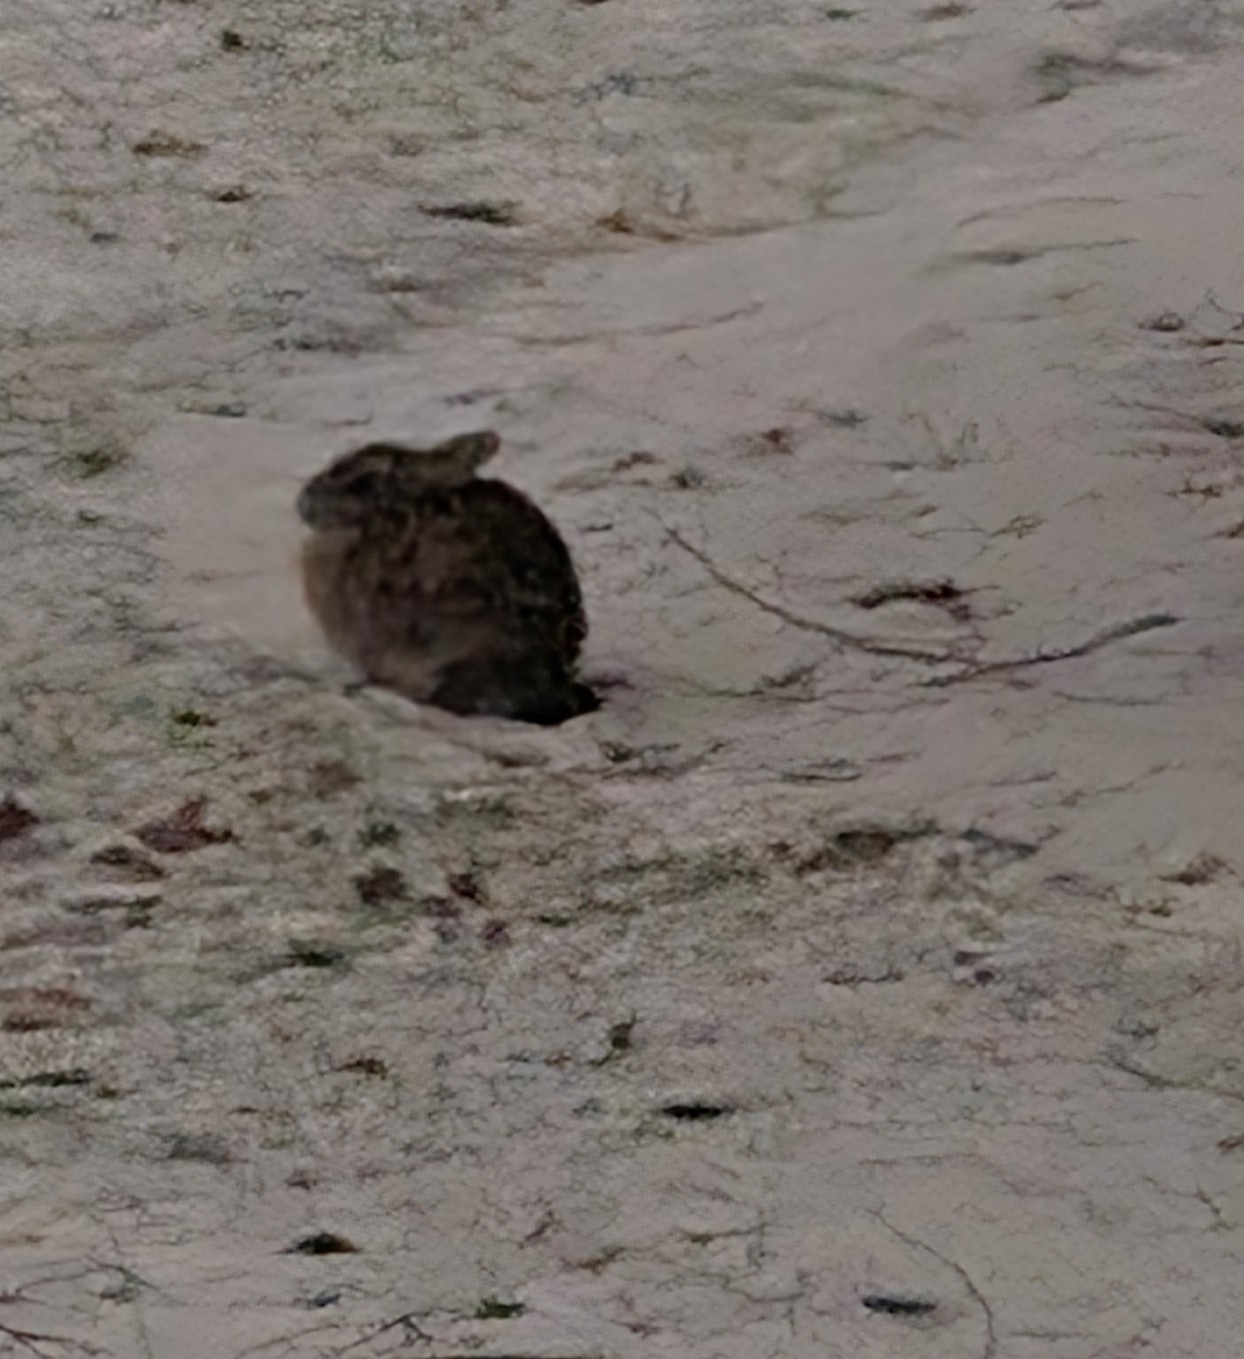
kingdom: Animalia
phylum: Chordata
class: Mammalia
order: Lagomorpha
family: Leporidae
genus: Sylvilagus
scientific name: Sylvilagus floridanus
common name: Eastern cottontail
